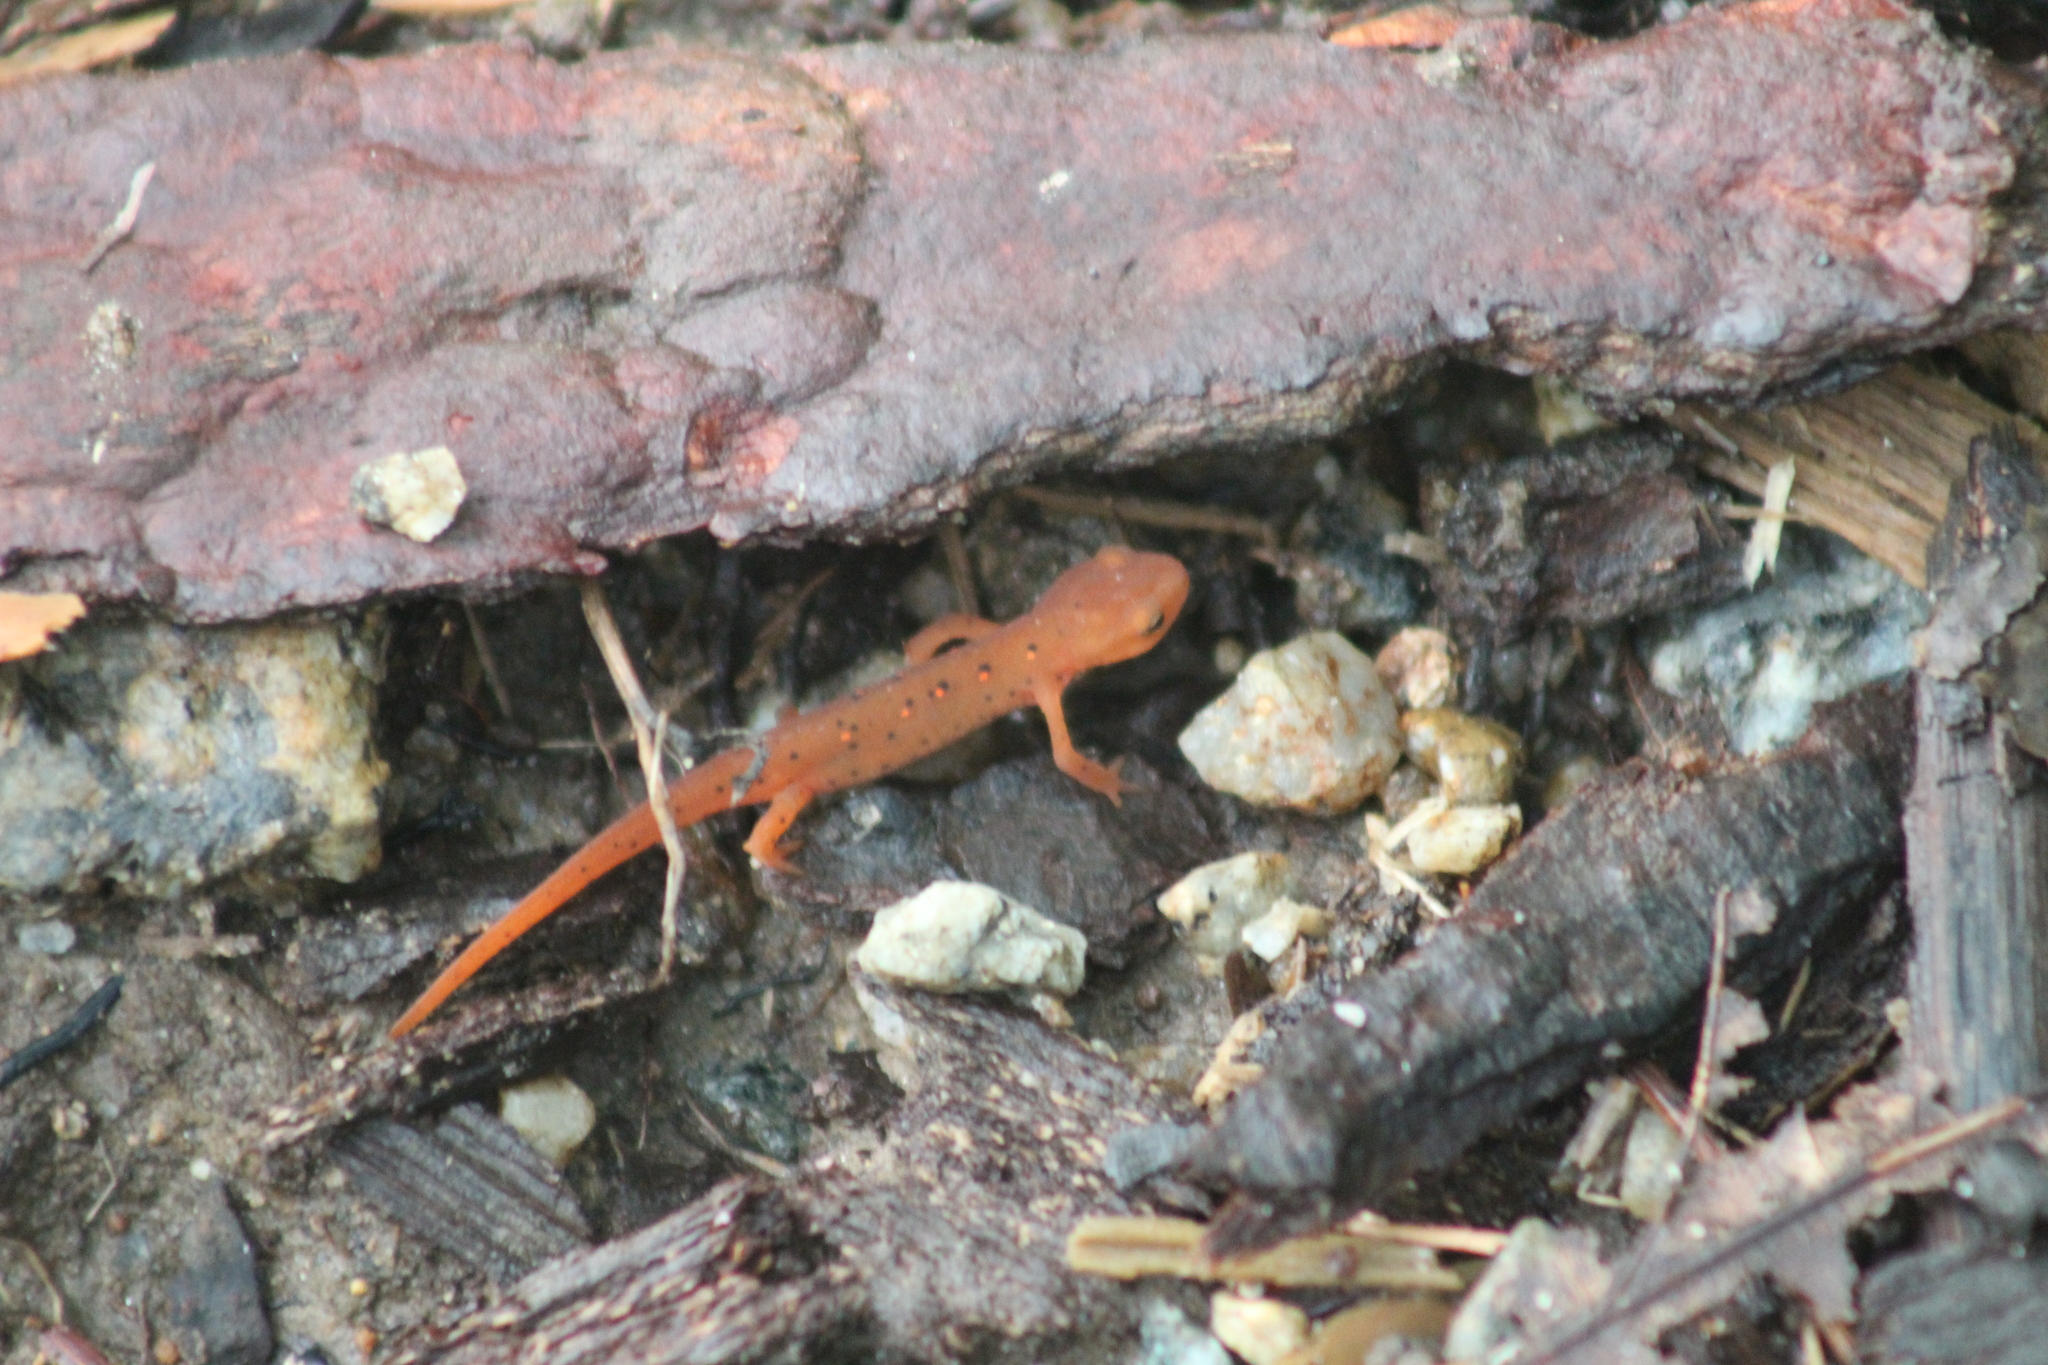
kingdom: Animalia
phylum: Chordata
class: Amphibia
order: Caudata
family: Salamandridae
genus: Notophthalmus
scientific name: Notophthalmus viridescens
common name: Eastern newt
